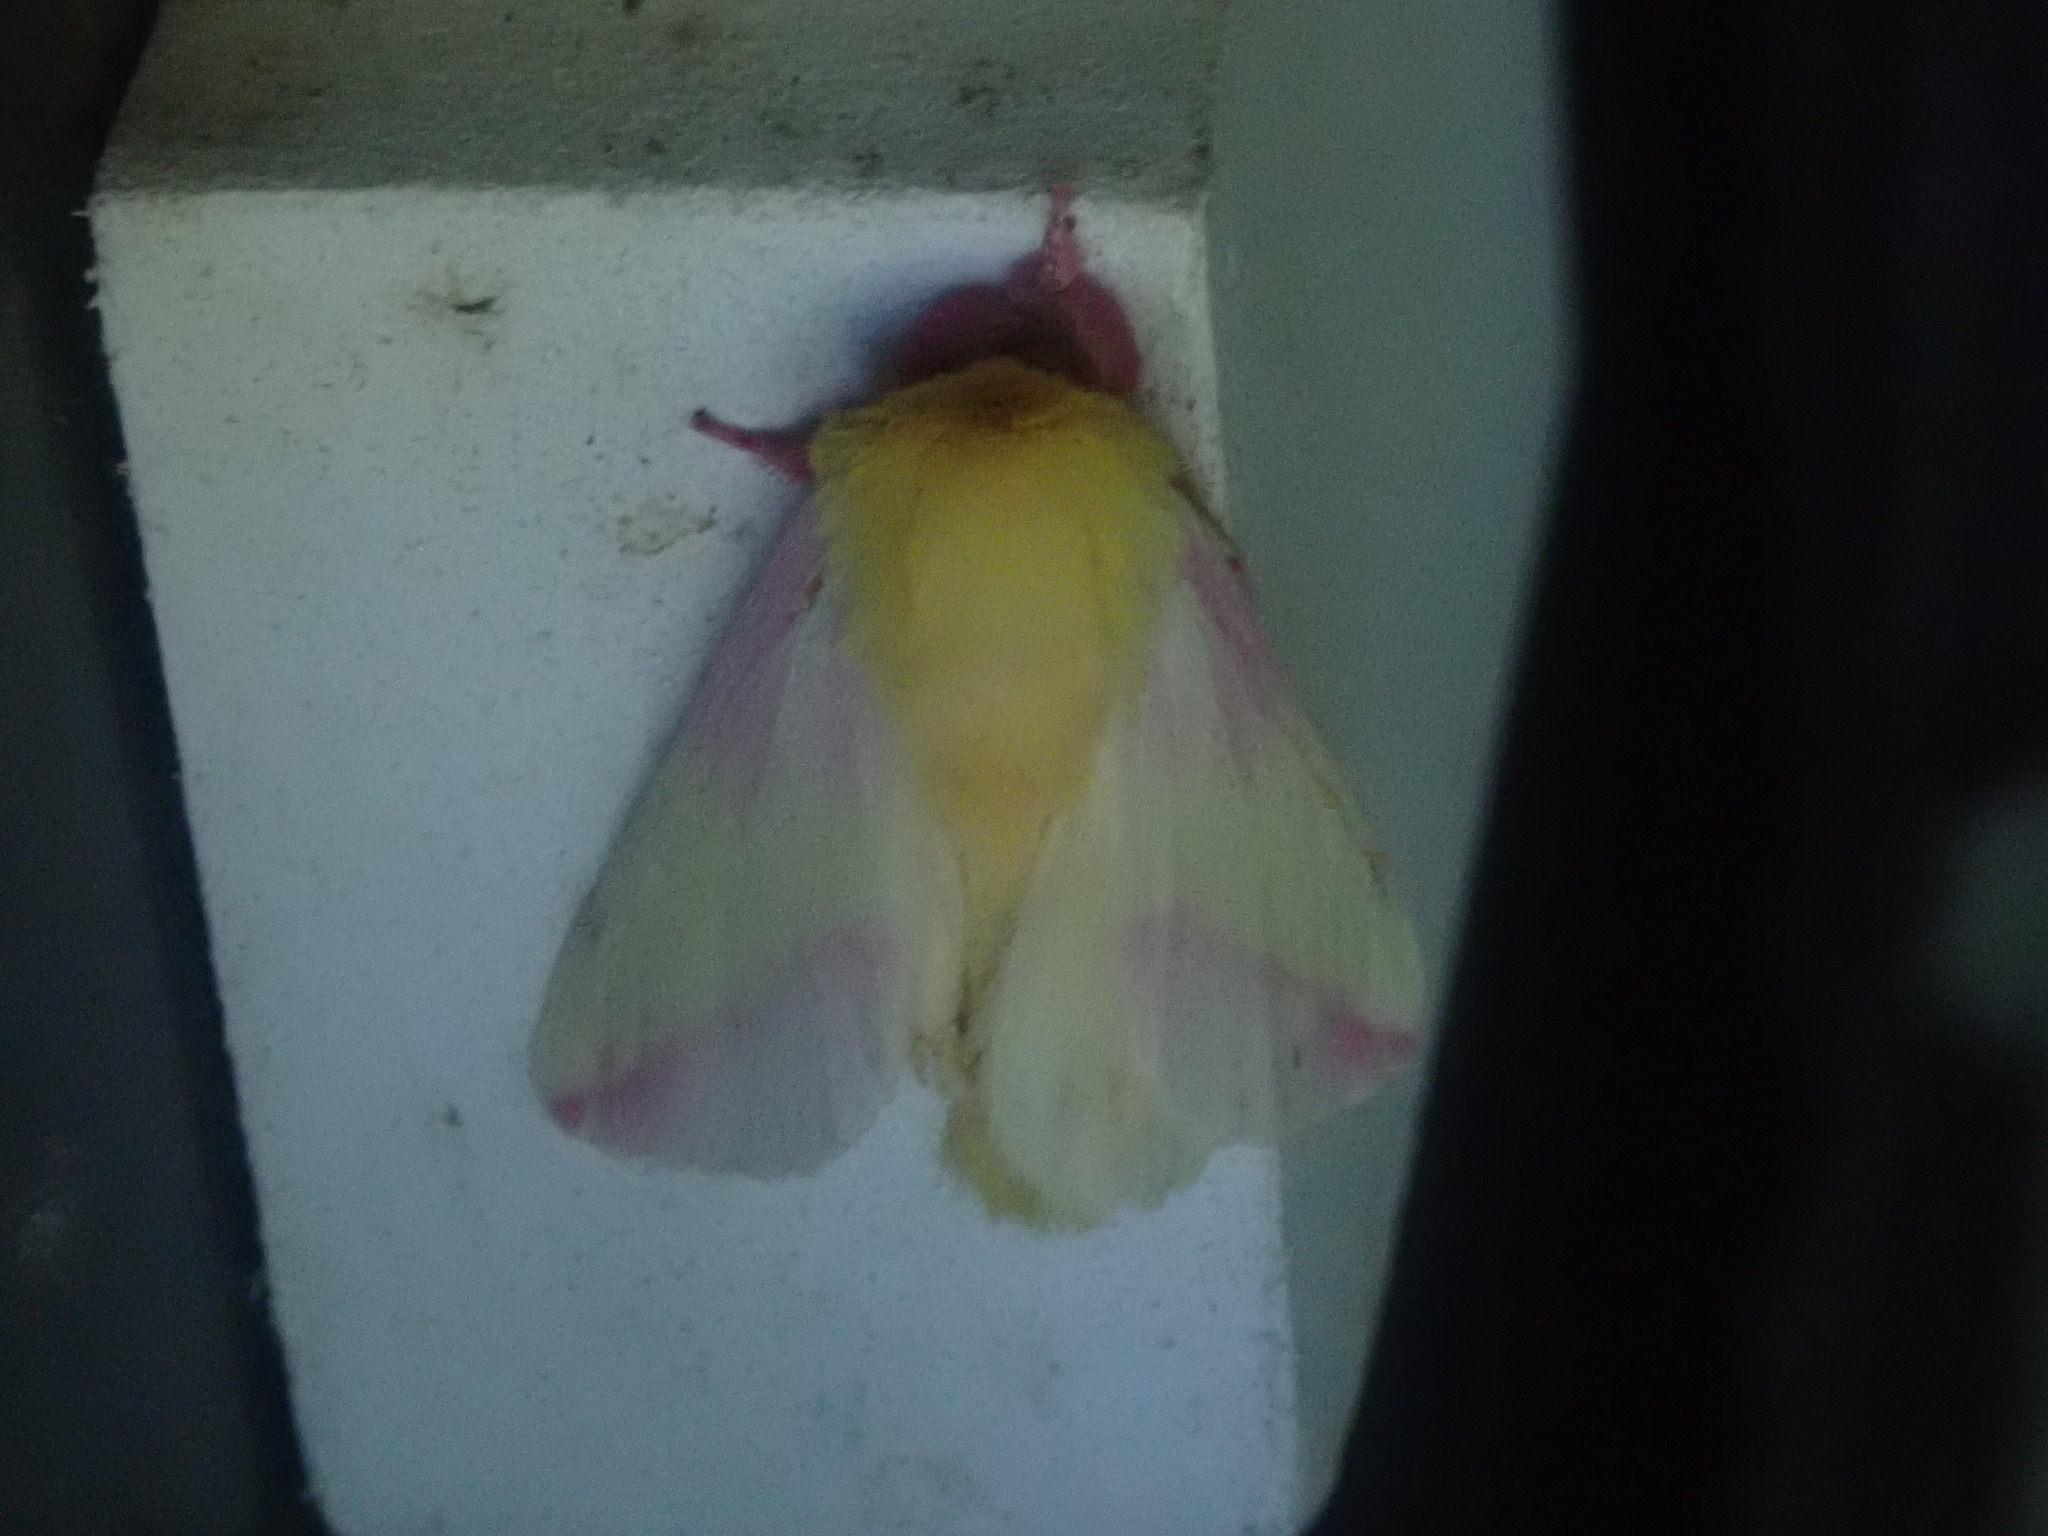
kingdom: Animalia
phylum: Arthropoda
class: Insecta
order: Lepidoptera
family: Saturniidae
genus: Dryocampa
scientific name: Dryocampa rubicunda
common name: Rosy maple moth
